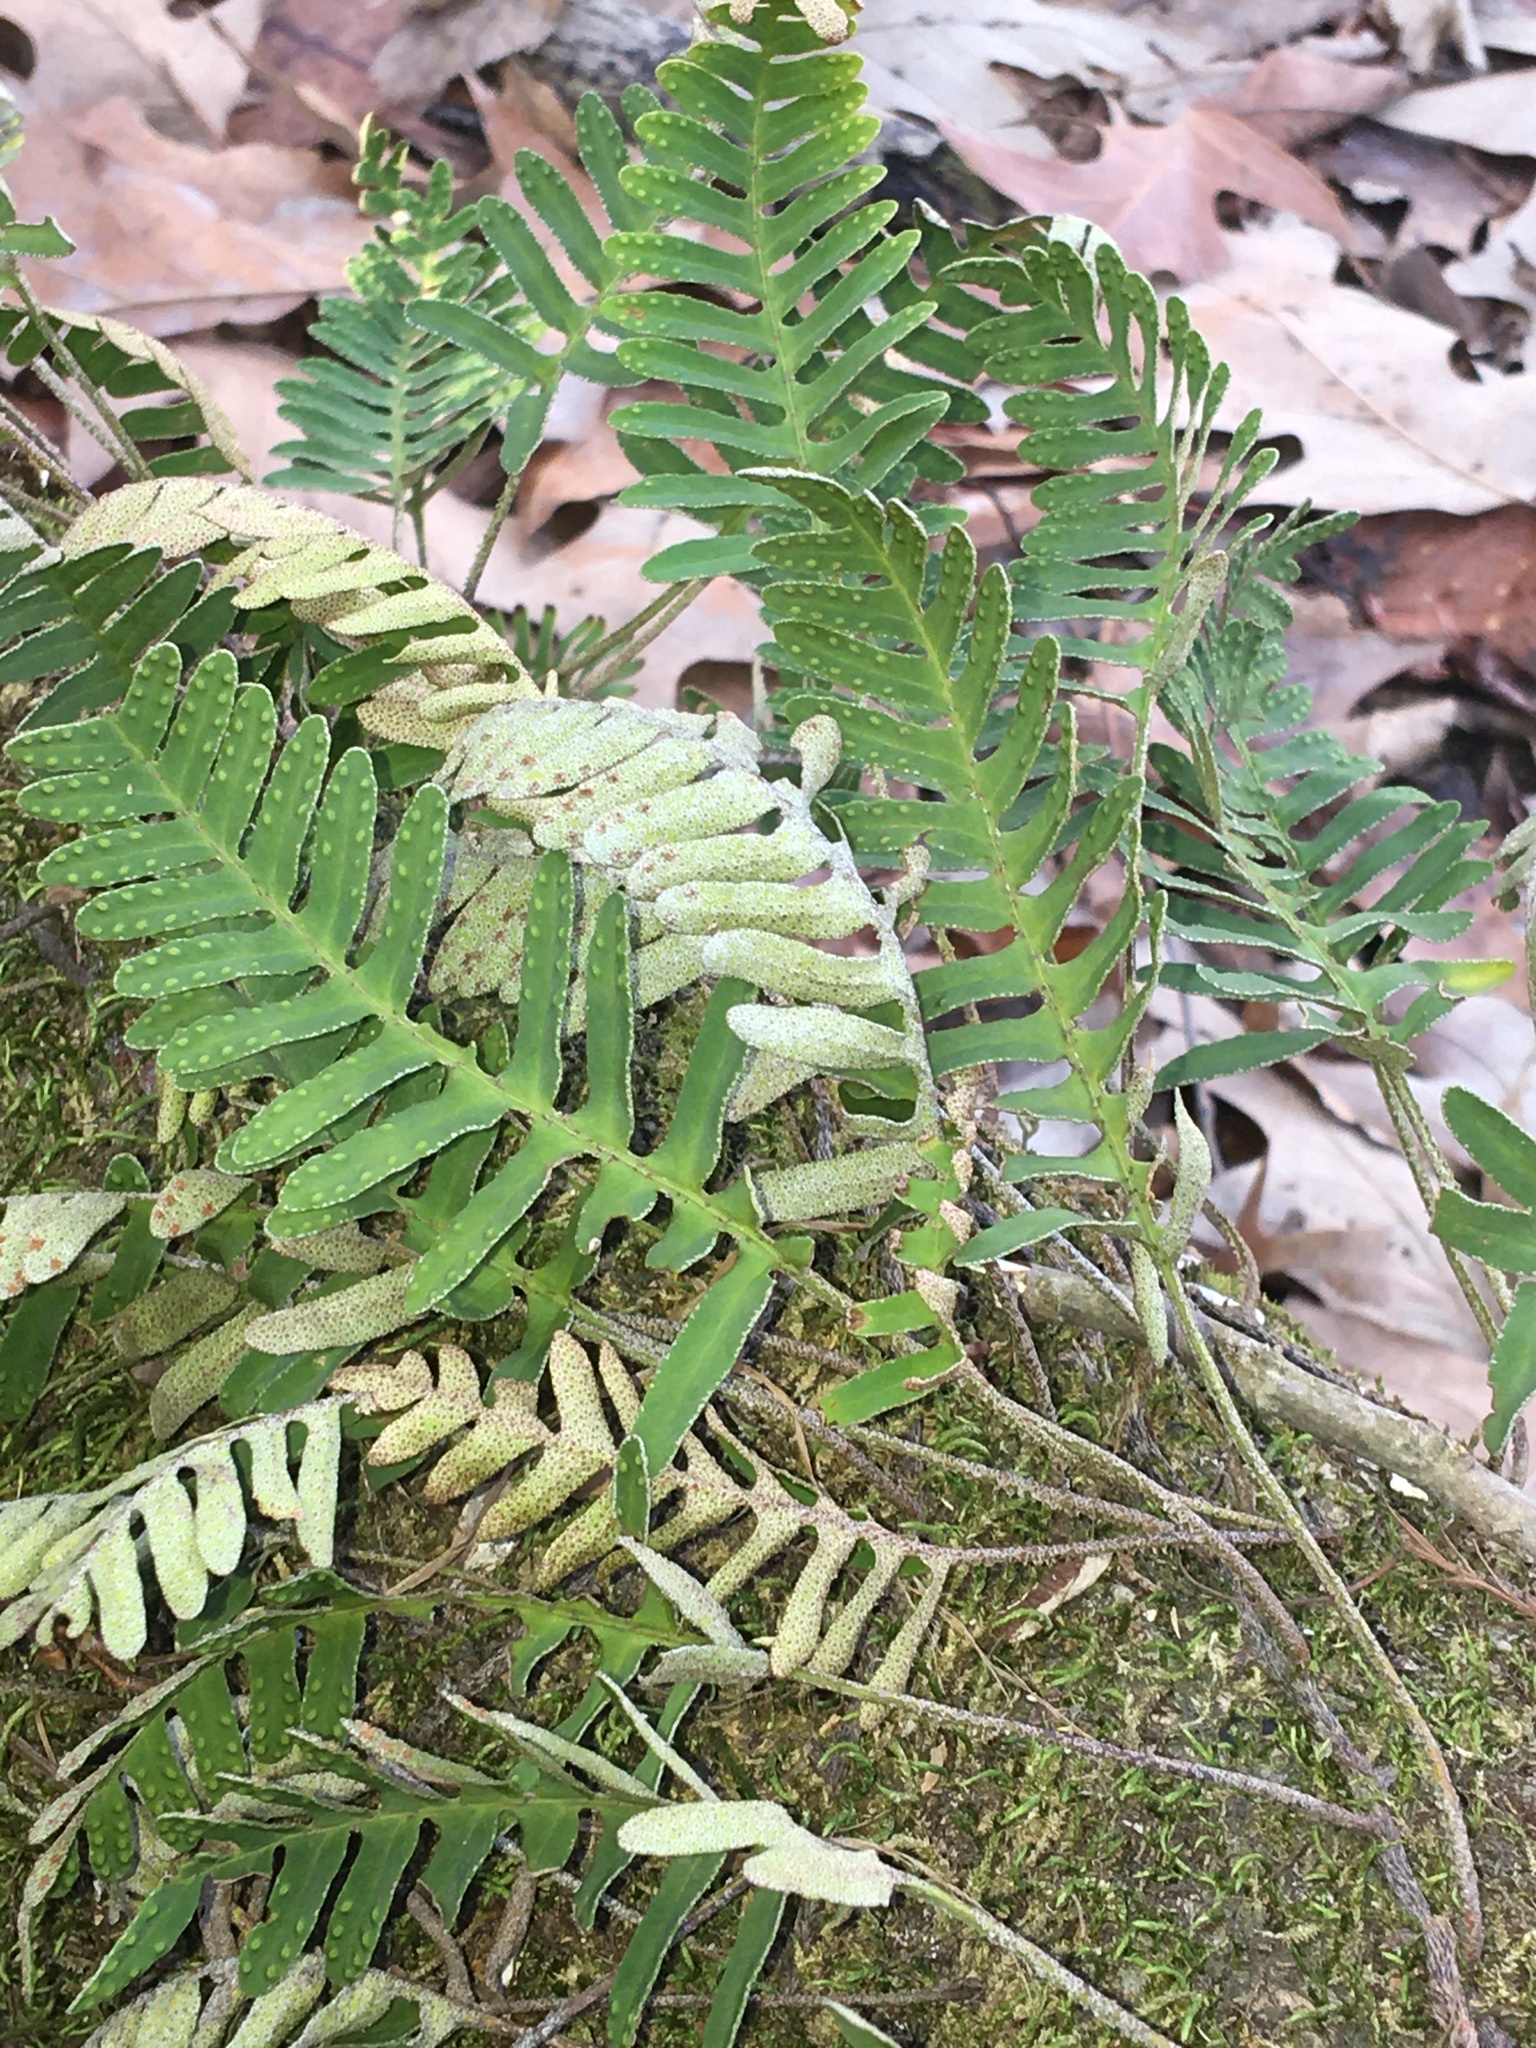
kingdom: Plantae
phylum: Tracheophyta
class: Polypodiopsida
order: Polypodiales
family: Polypodiaceae
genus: Pleopeltis
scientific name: Pleopeltis michauxiana
